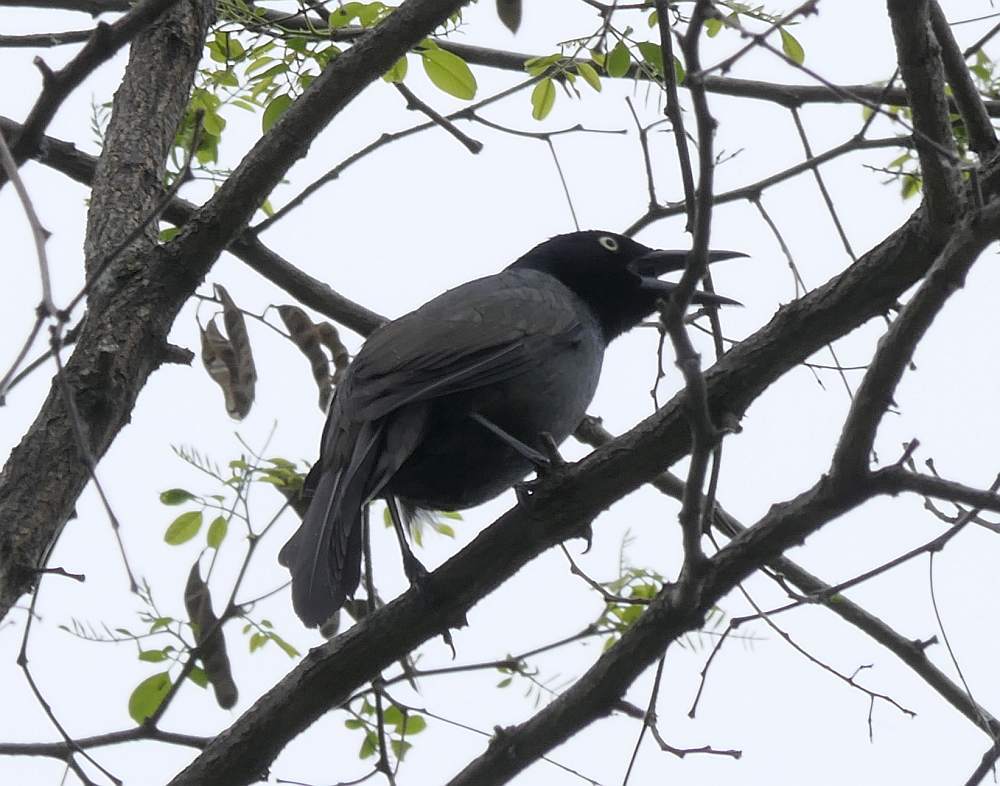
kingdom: Animalia
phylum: Chordata
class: Aves
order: Passeriformes
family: Icteridae
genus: Quiscalus
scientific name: Quiscalus quiscula
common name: Common grackle
